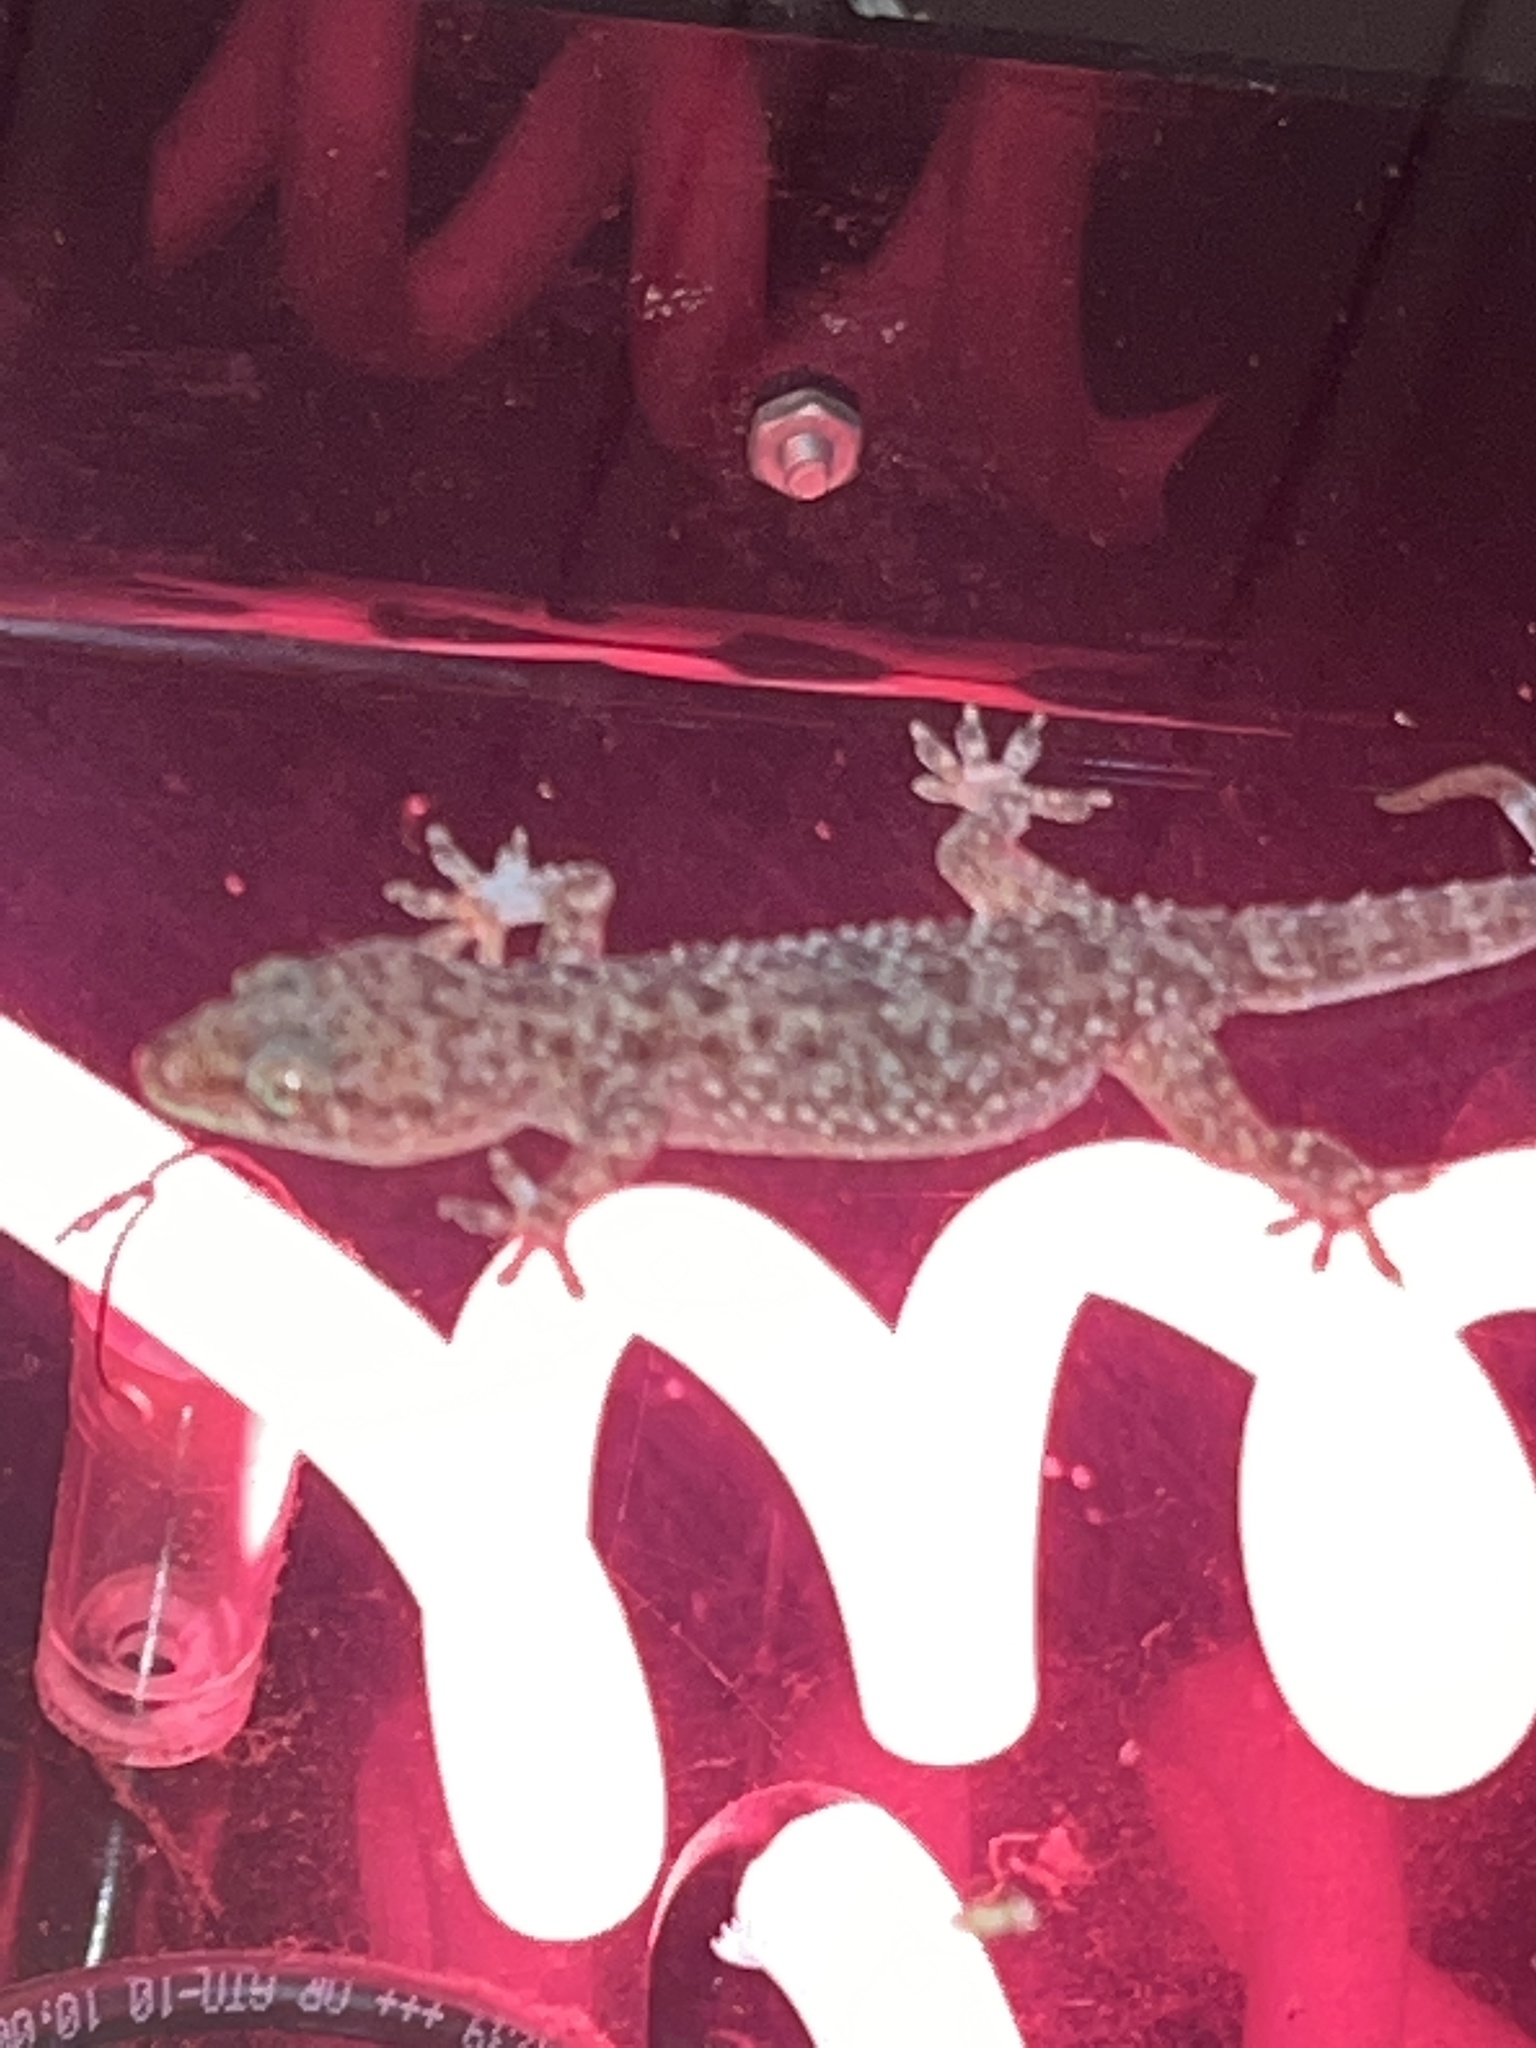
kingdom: Animalia
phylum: Chordata
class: Squamata
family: Gekkonidae
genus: Hemidactylus
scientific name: Hemidactylus turcicus
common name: Turkish gecko
